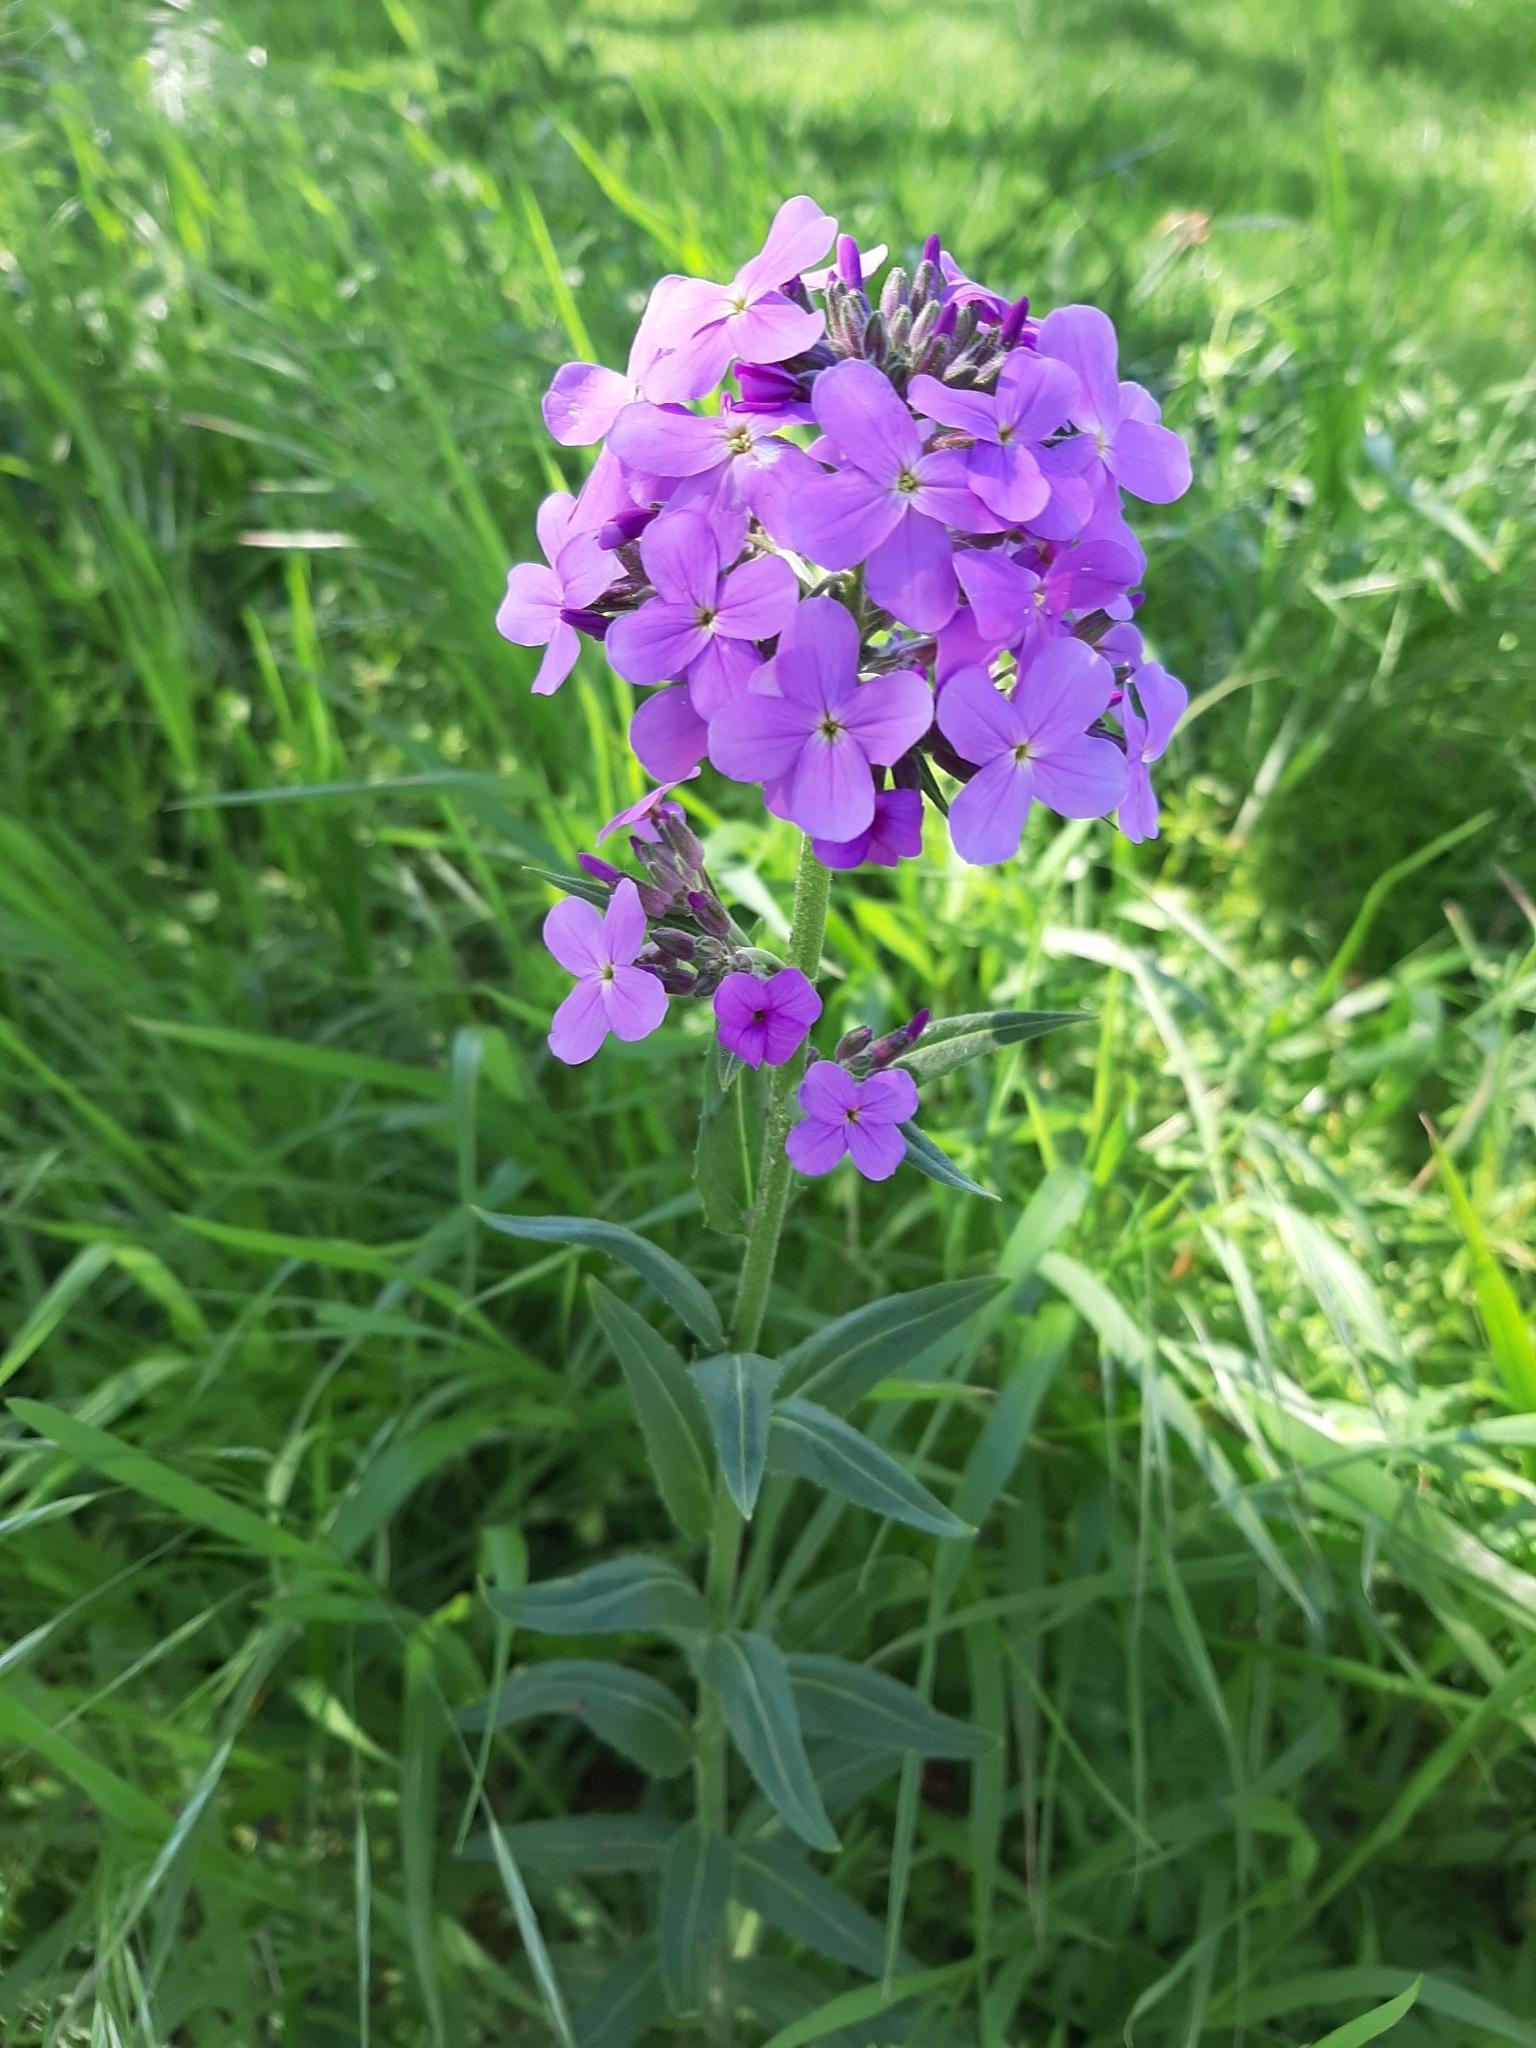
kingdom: Plantae
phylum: Tracheophyta
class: Magnoliopsida
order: Brassicales
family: Brassicaceae
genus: Hesperis
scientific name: Hesperis matronalis
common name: Dame's-violet
